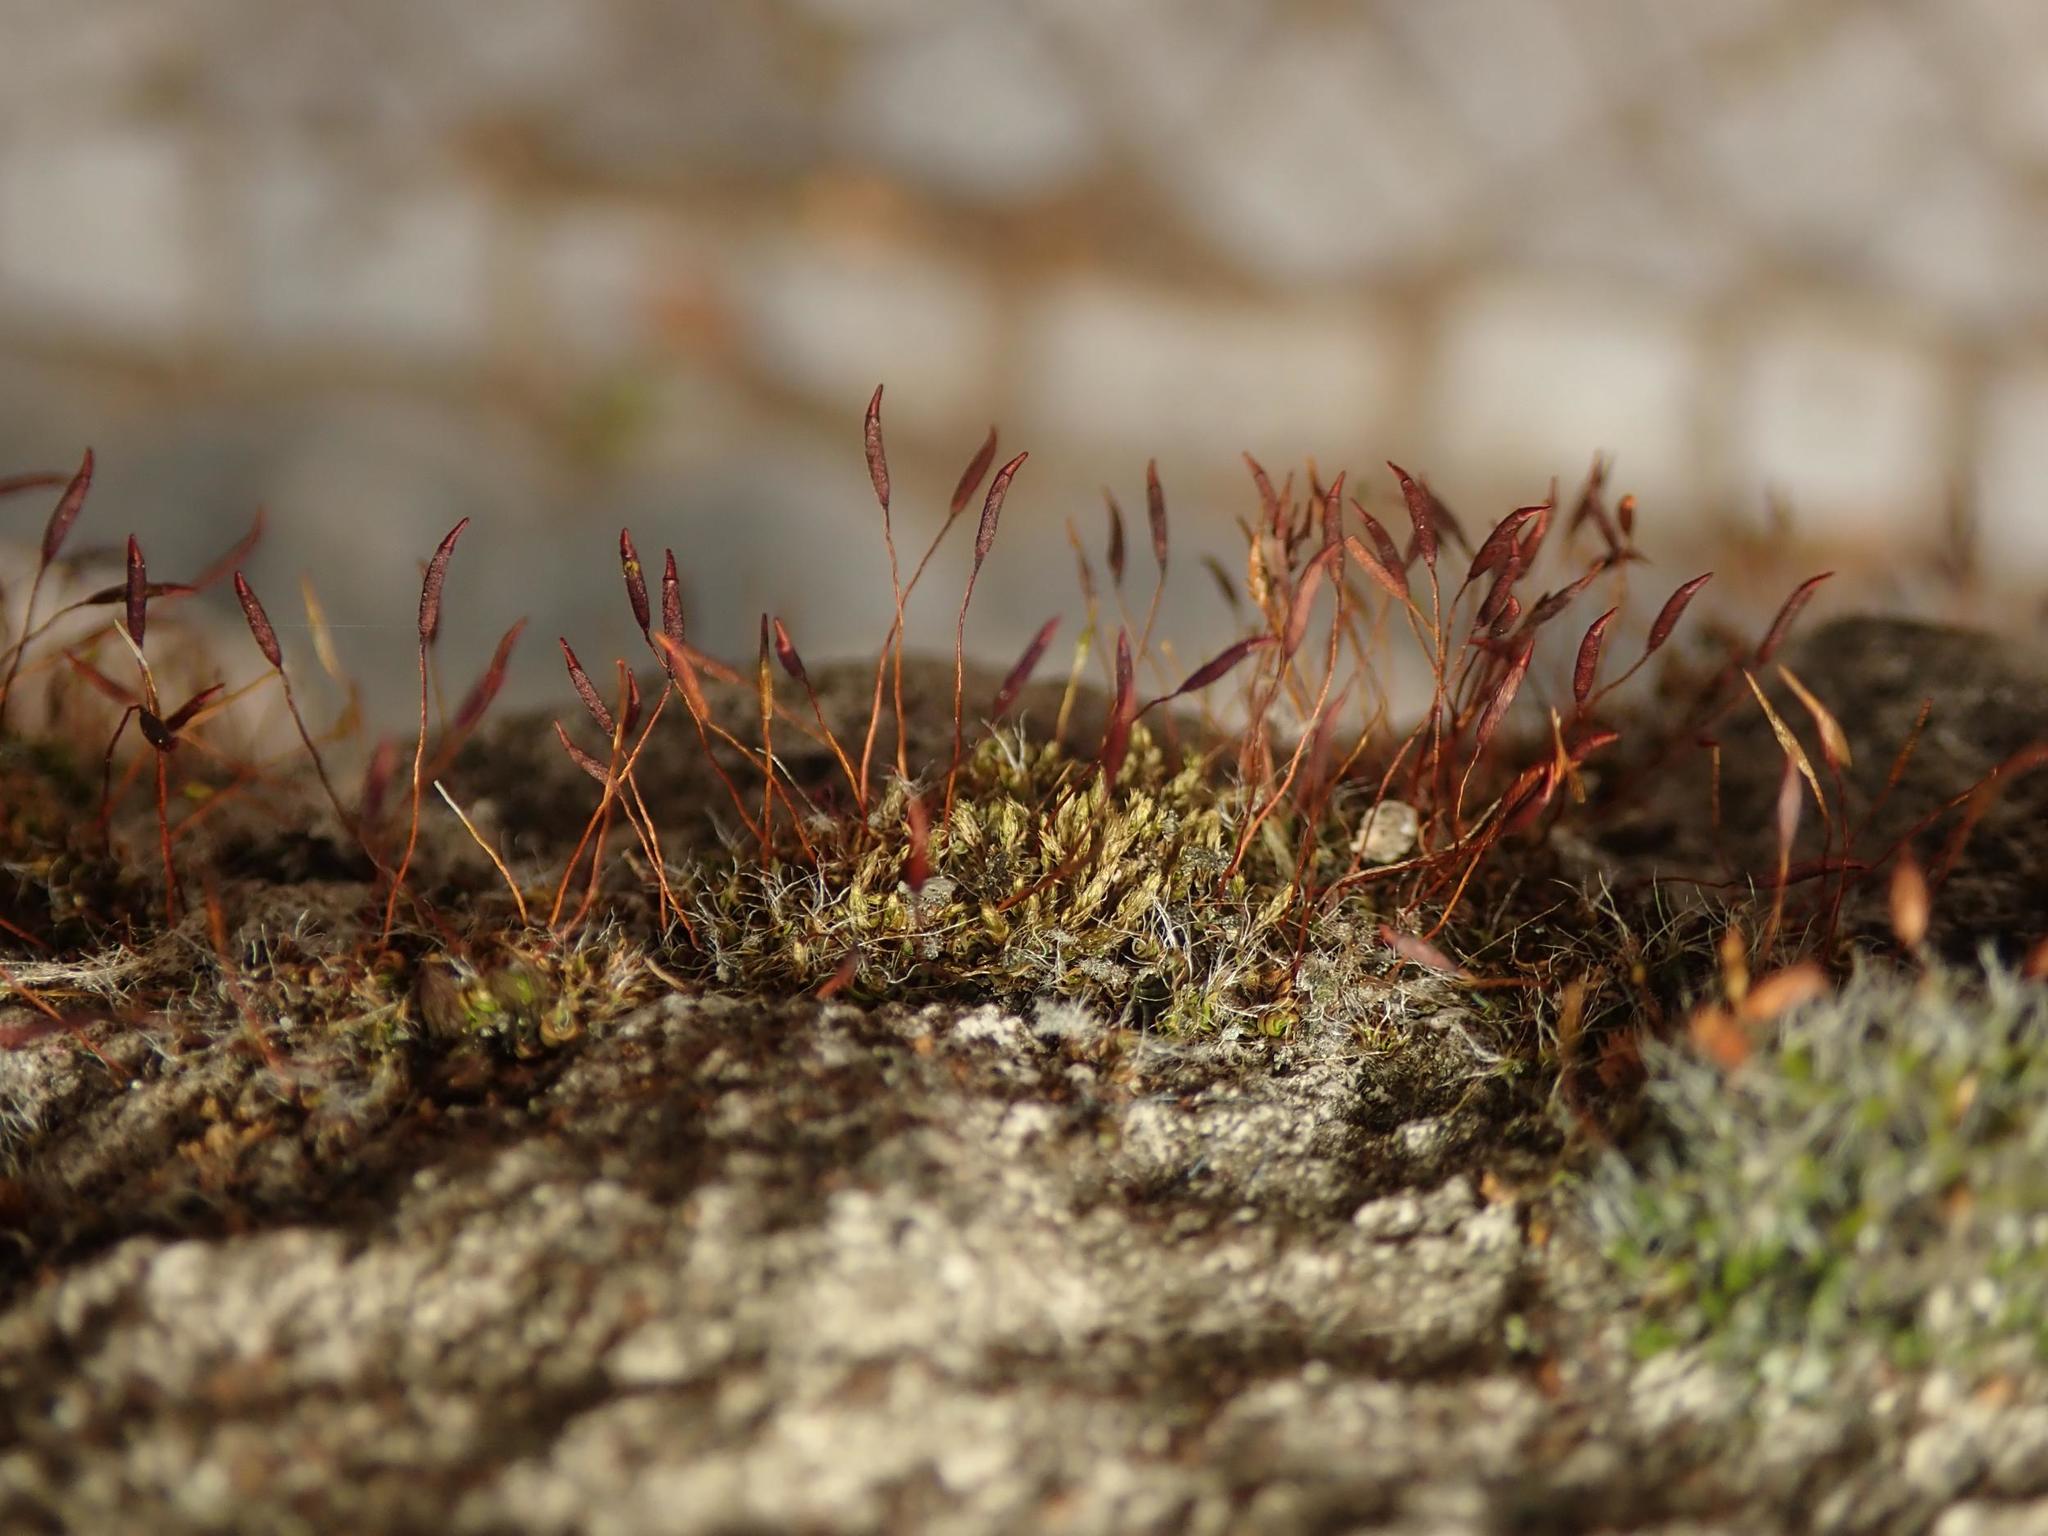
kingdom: Plantae
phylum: Bryophyta
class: Bryopsida
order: Pottiales
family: Pottiaceae
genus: Tortula
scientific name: Tortula muralis
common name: Wall screw-moss
